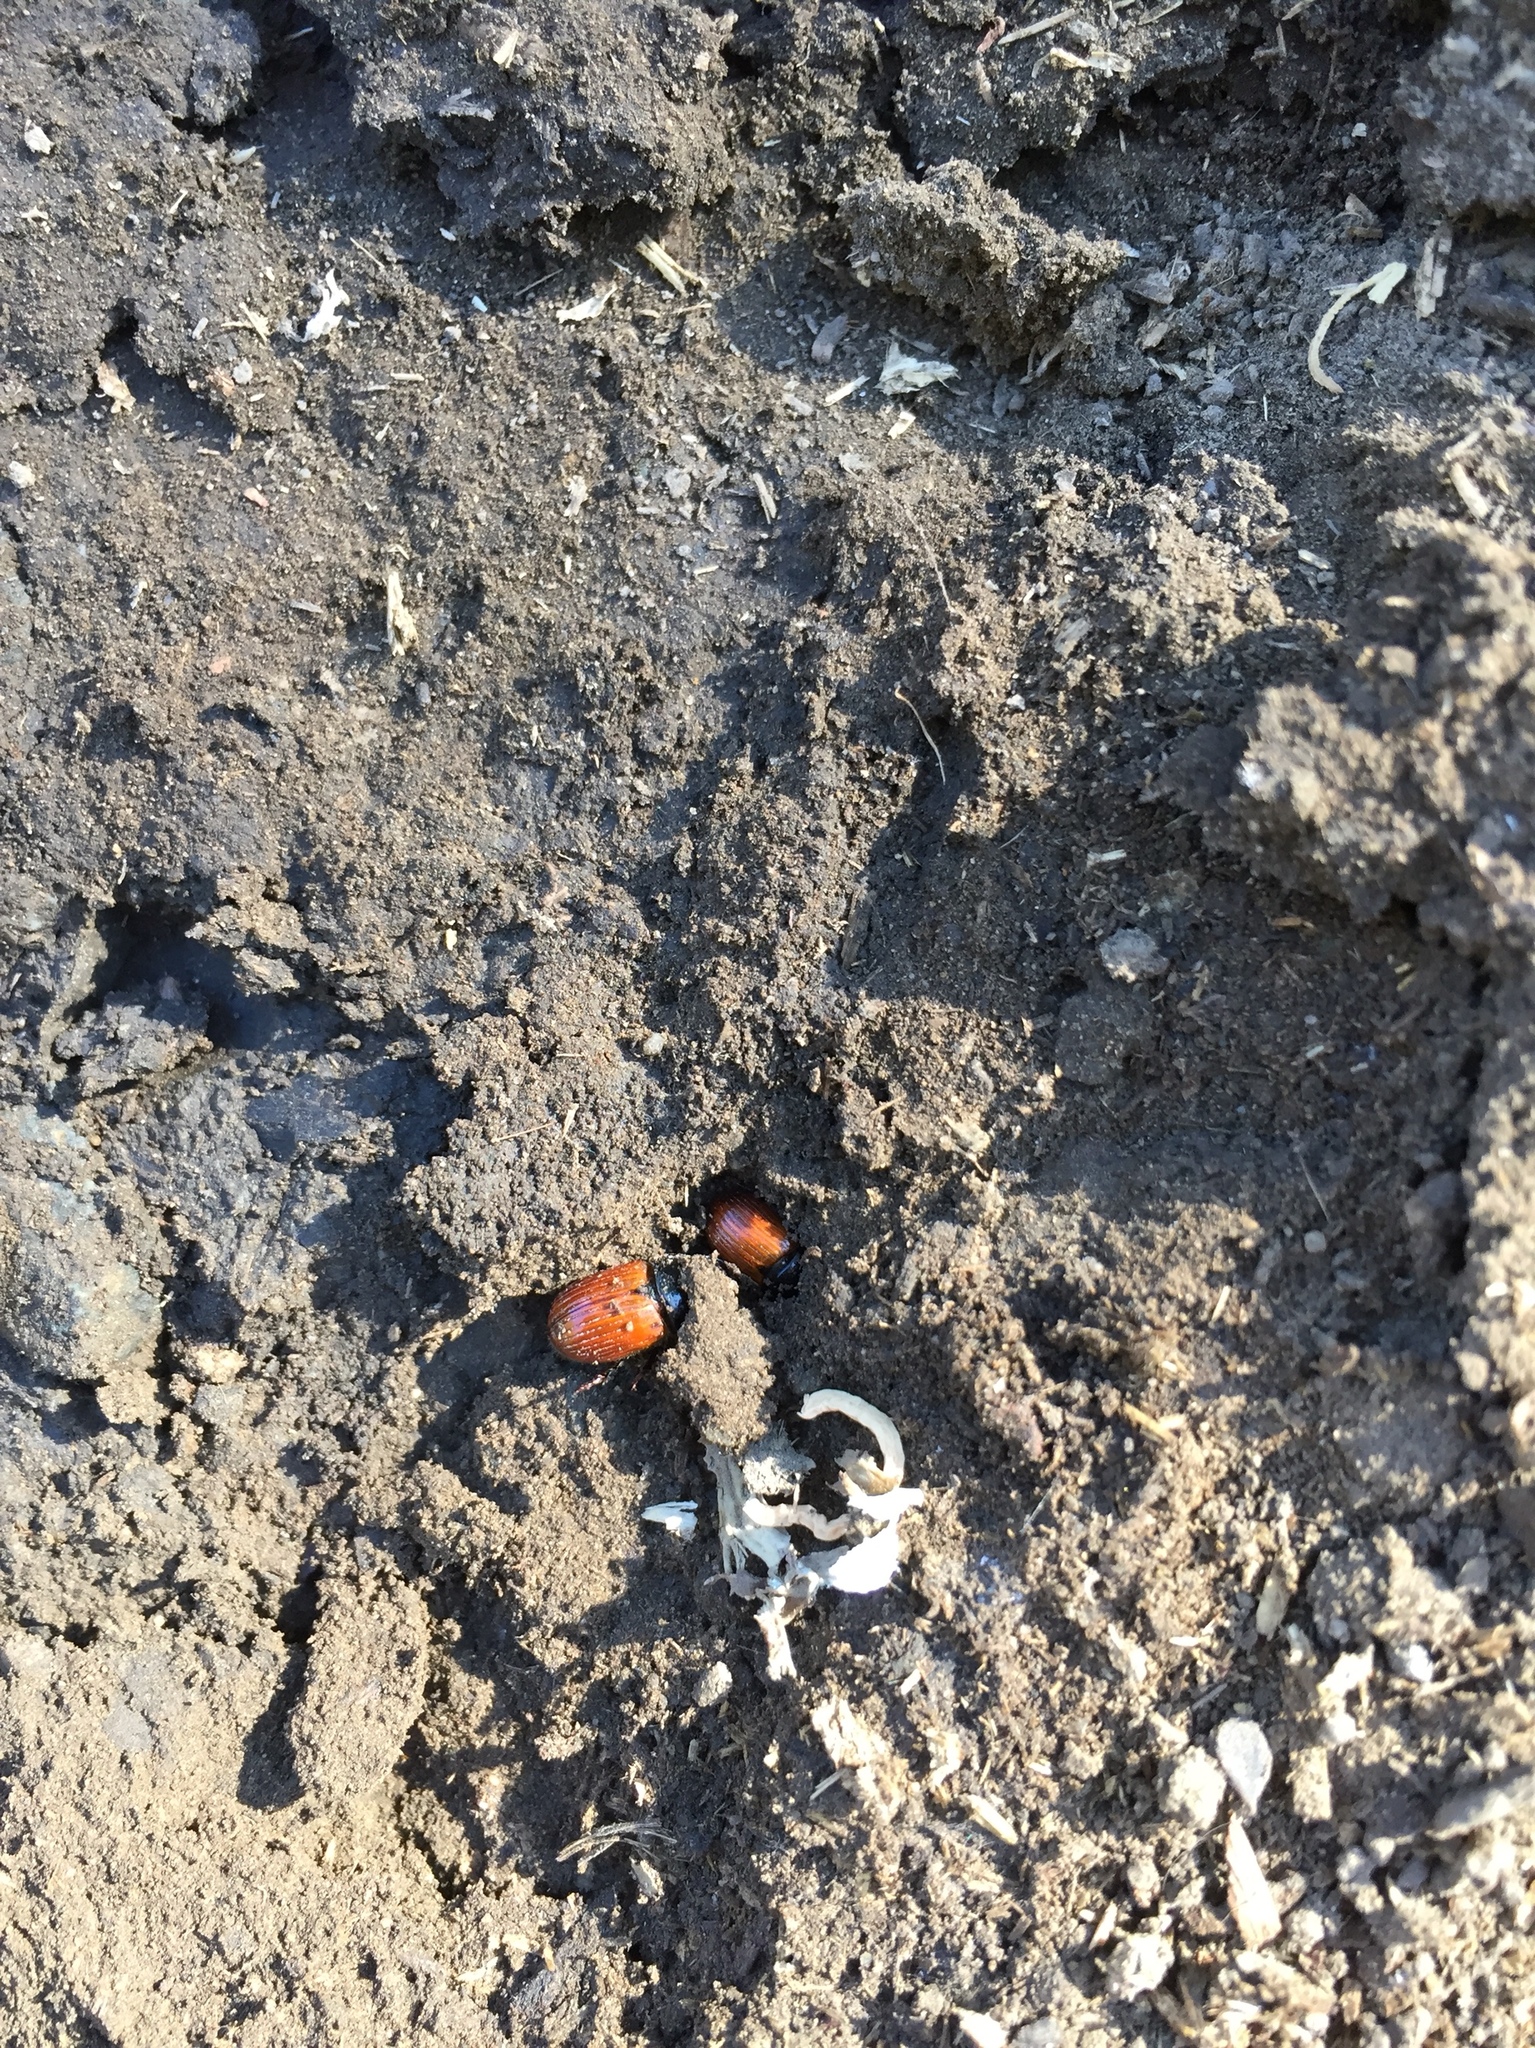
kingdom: Animalia
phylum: Arthropoda
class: Insecta
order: Coleoptera
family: Scarabaeidae
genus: Aphodius
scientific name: Aphodius
